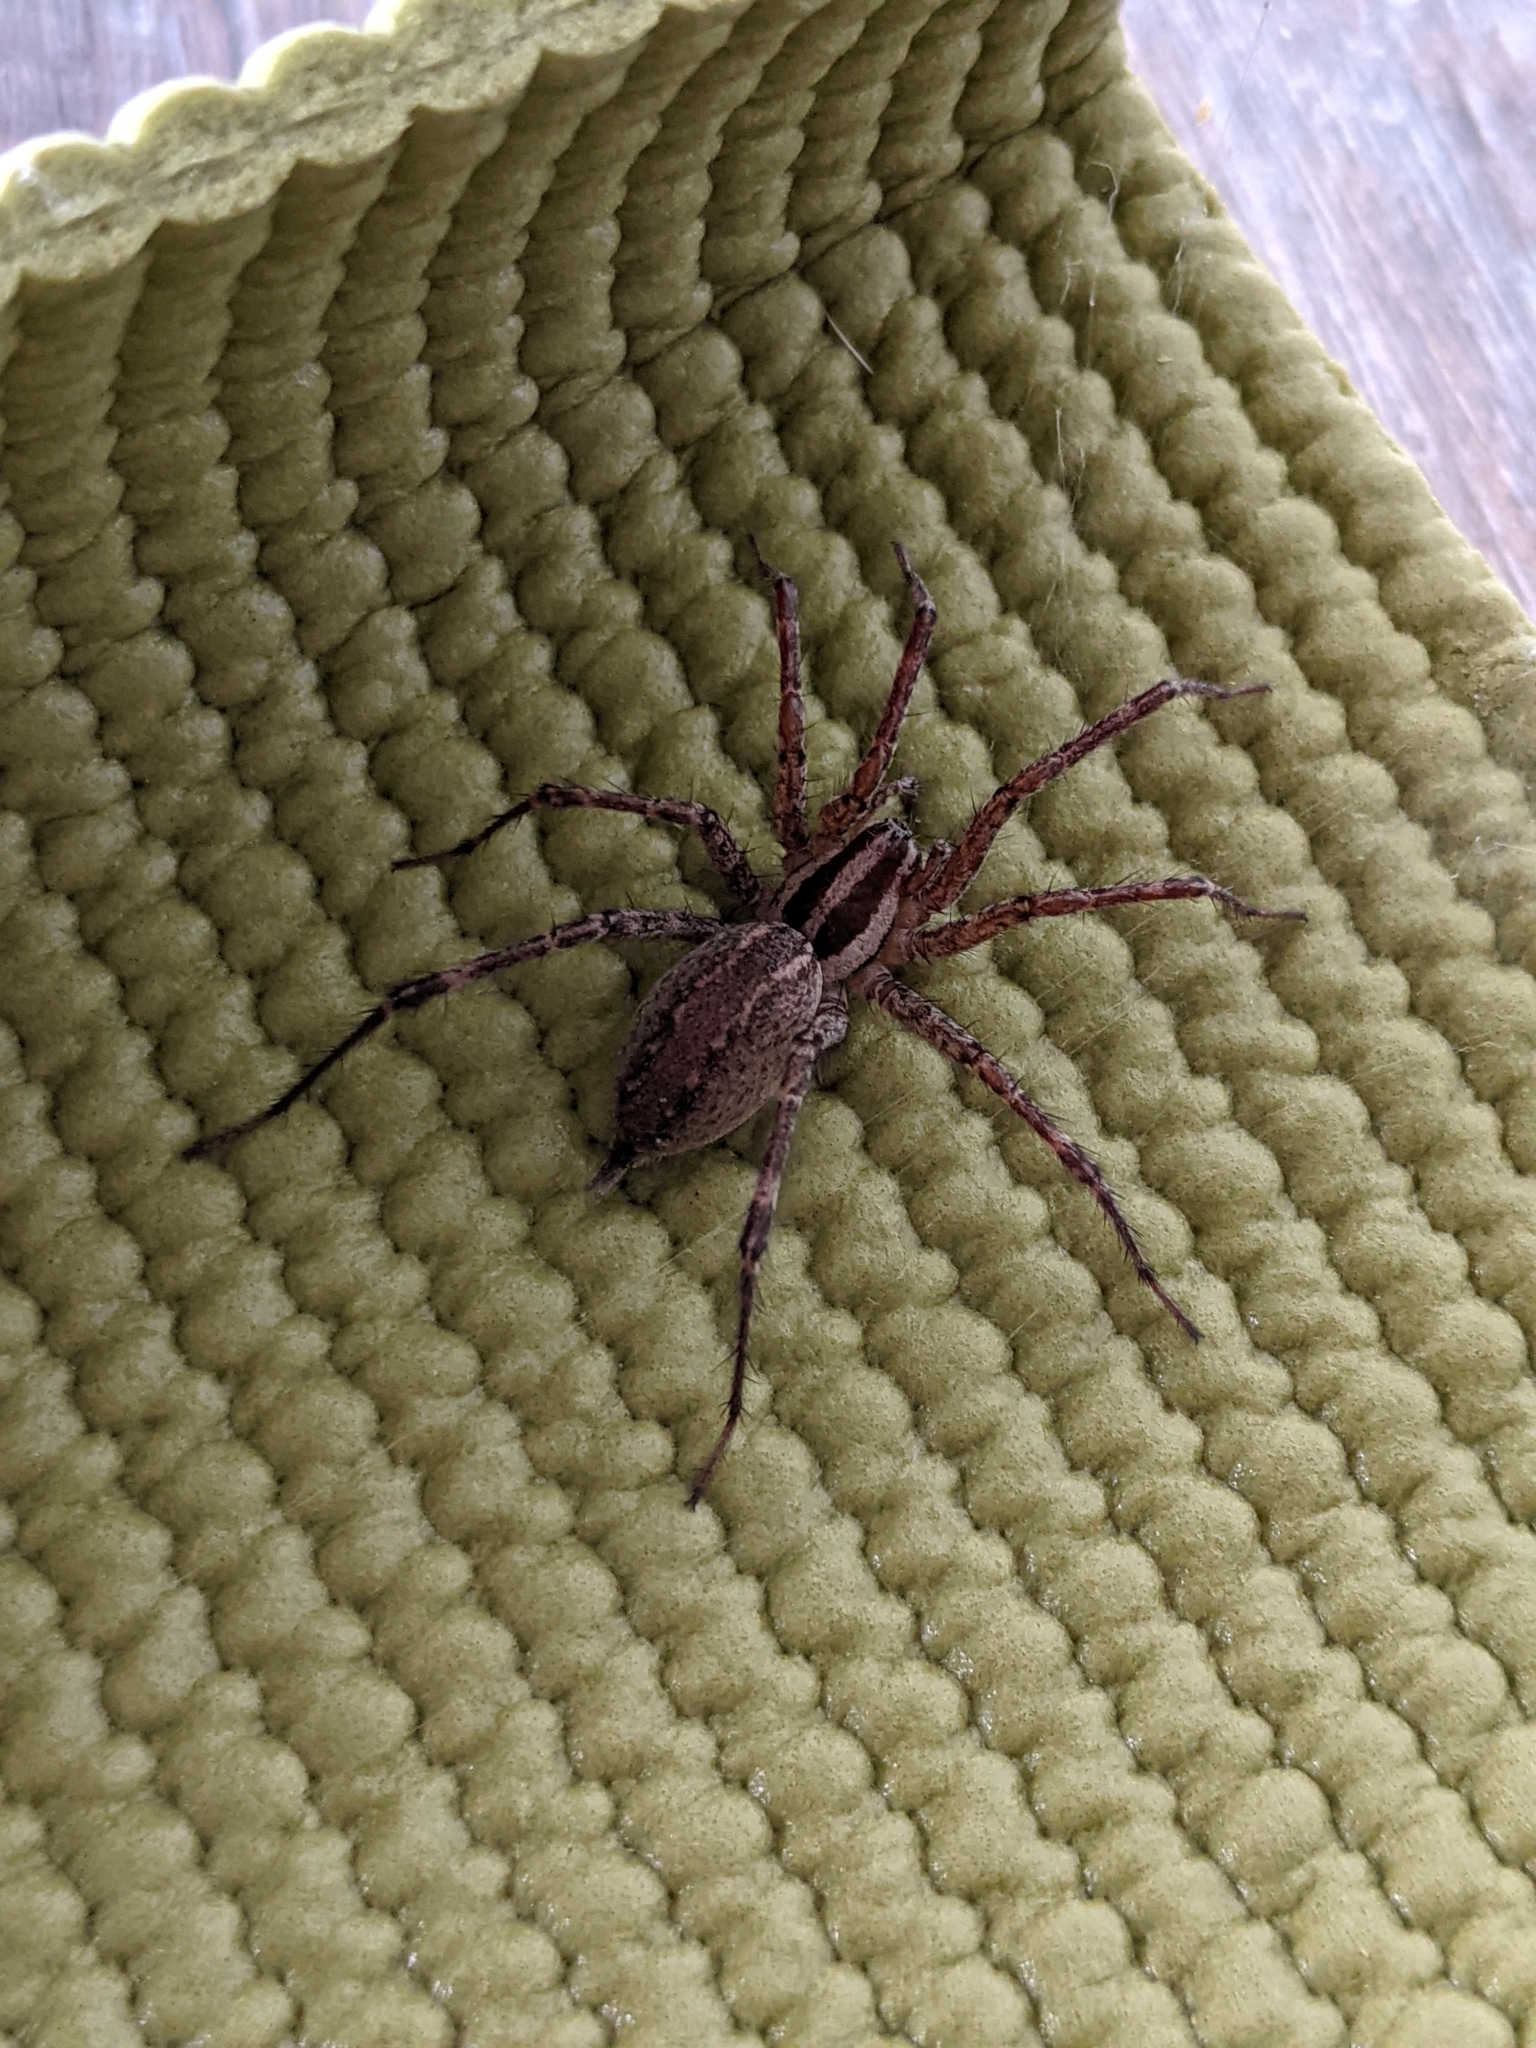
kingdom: Animalia
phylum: Arthropoda
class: Arachnida
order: Araneae
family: Agelenidae
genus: Agelenopsis
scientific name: Agelenopsis
